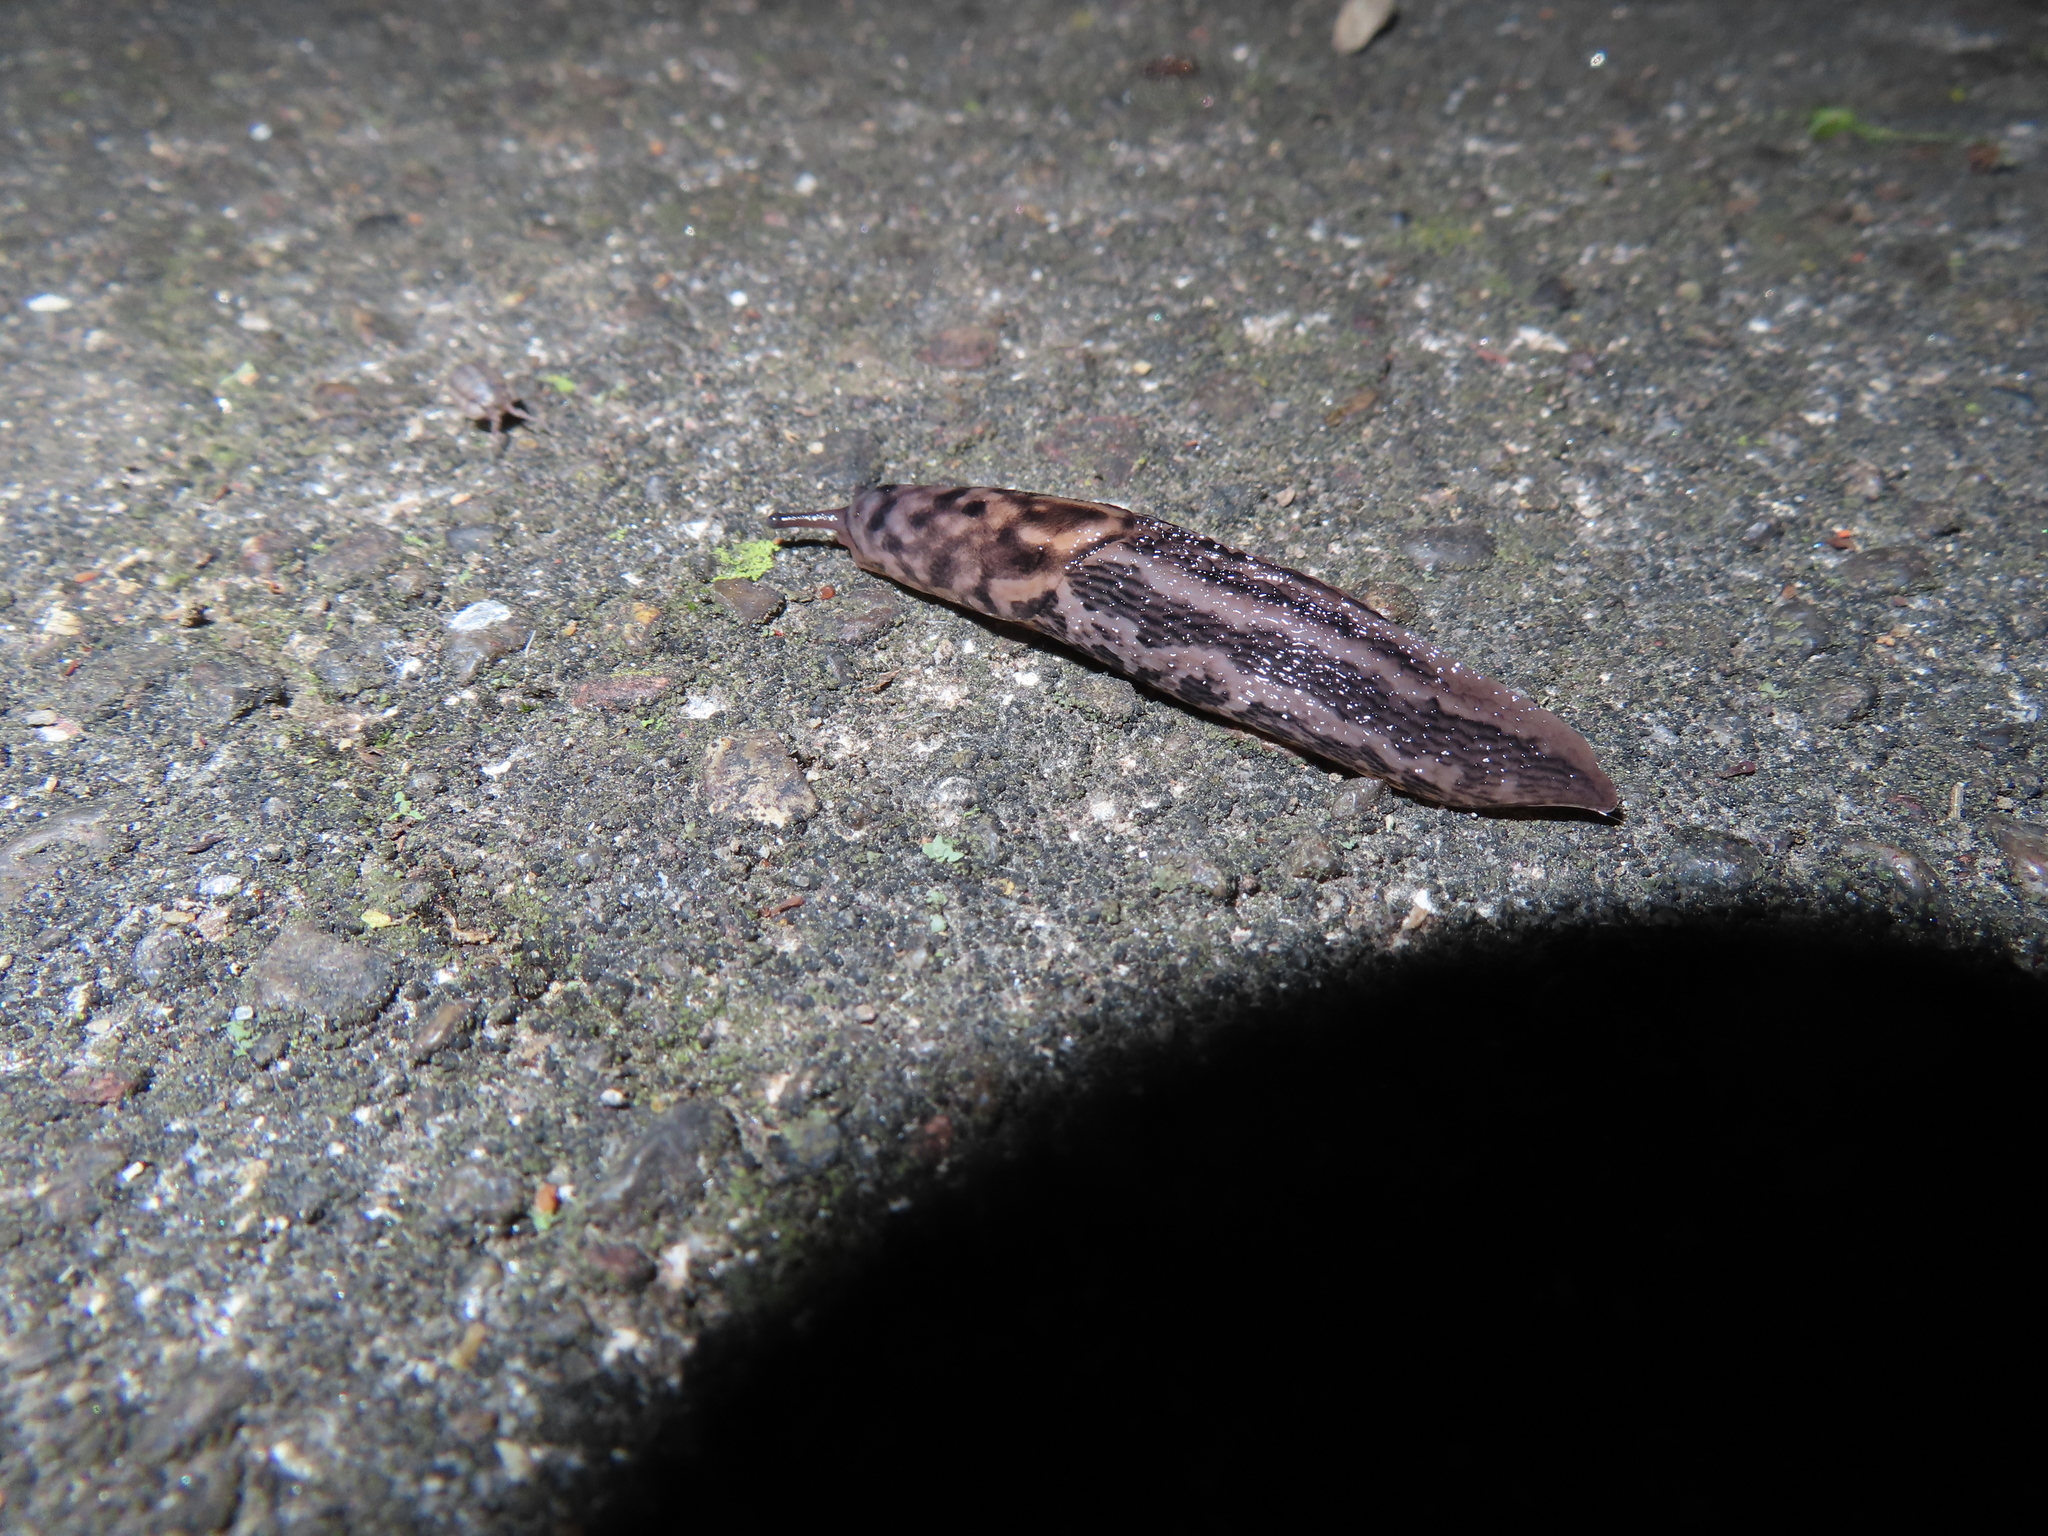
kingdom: Animalia
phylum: Mollusca
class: Gastropoda
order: Stylommatophora
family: Limacidae
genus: Limax
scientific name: Limax maximus
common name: Great grey slug
